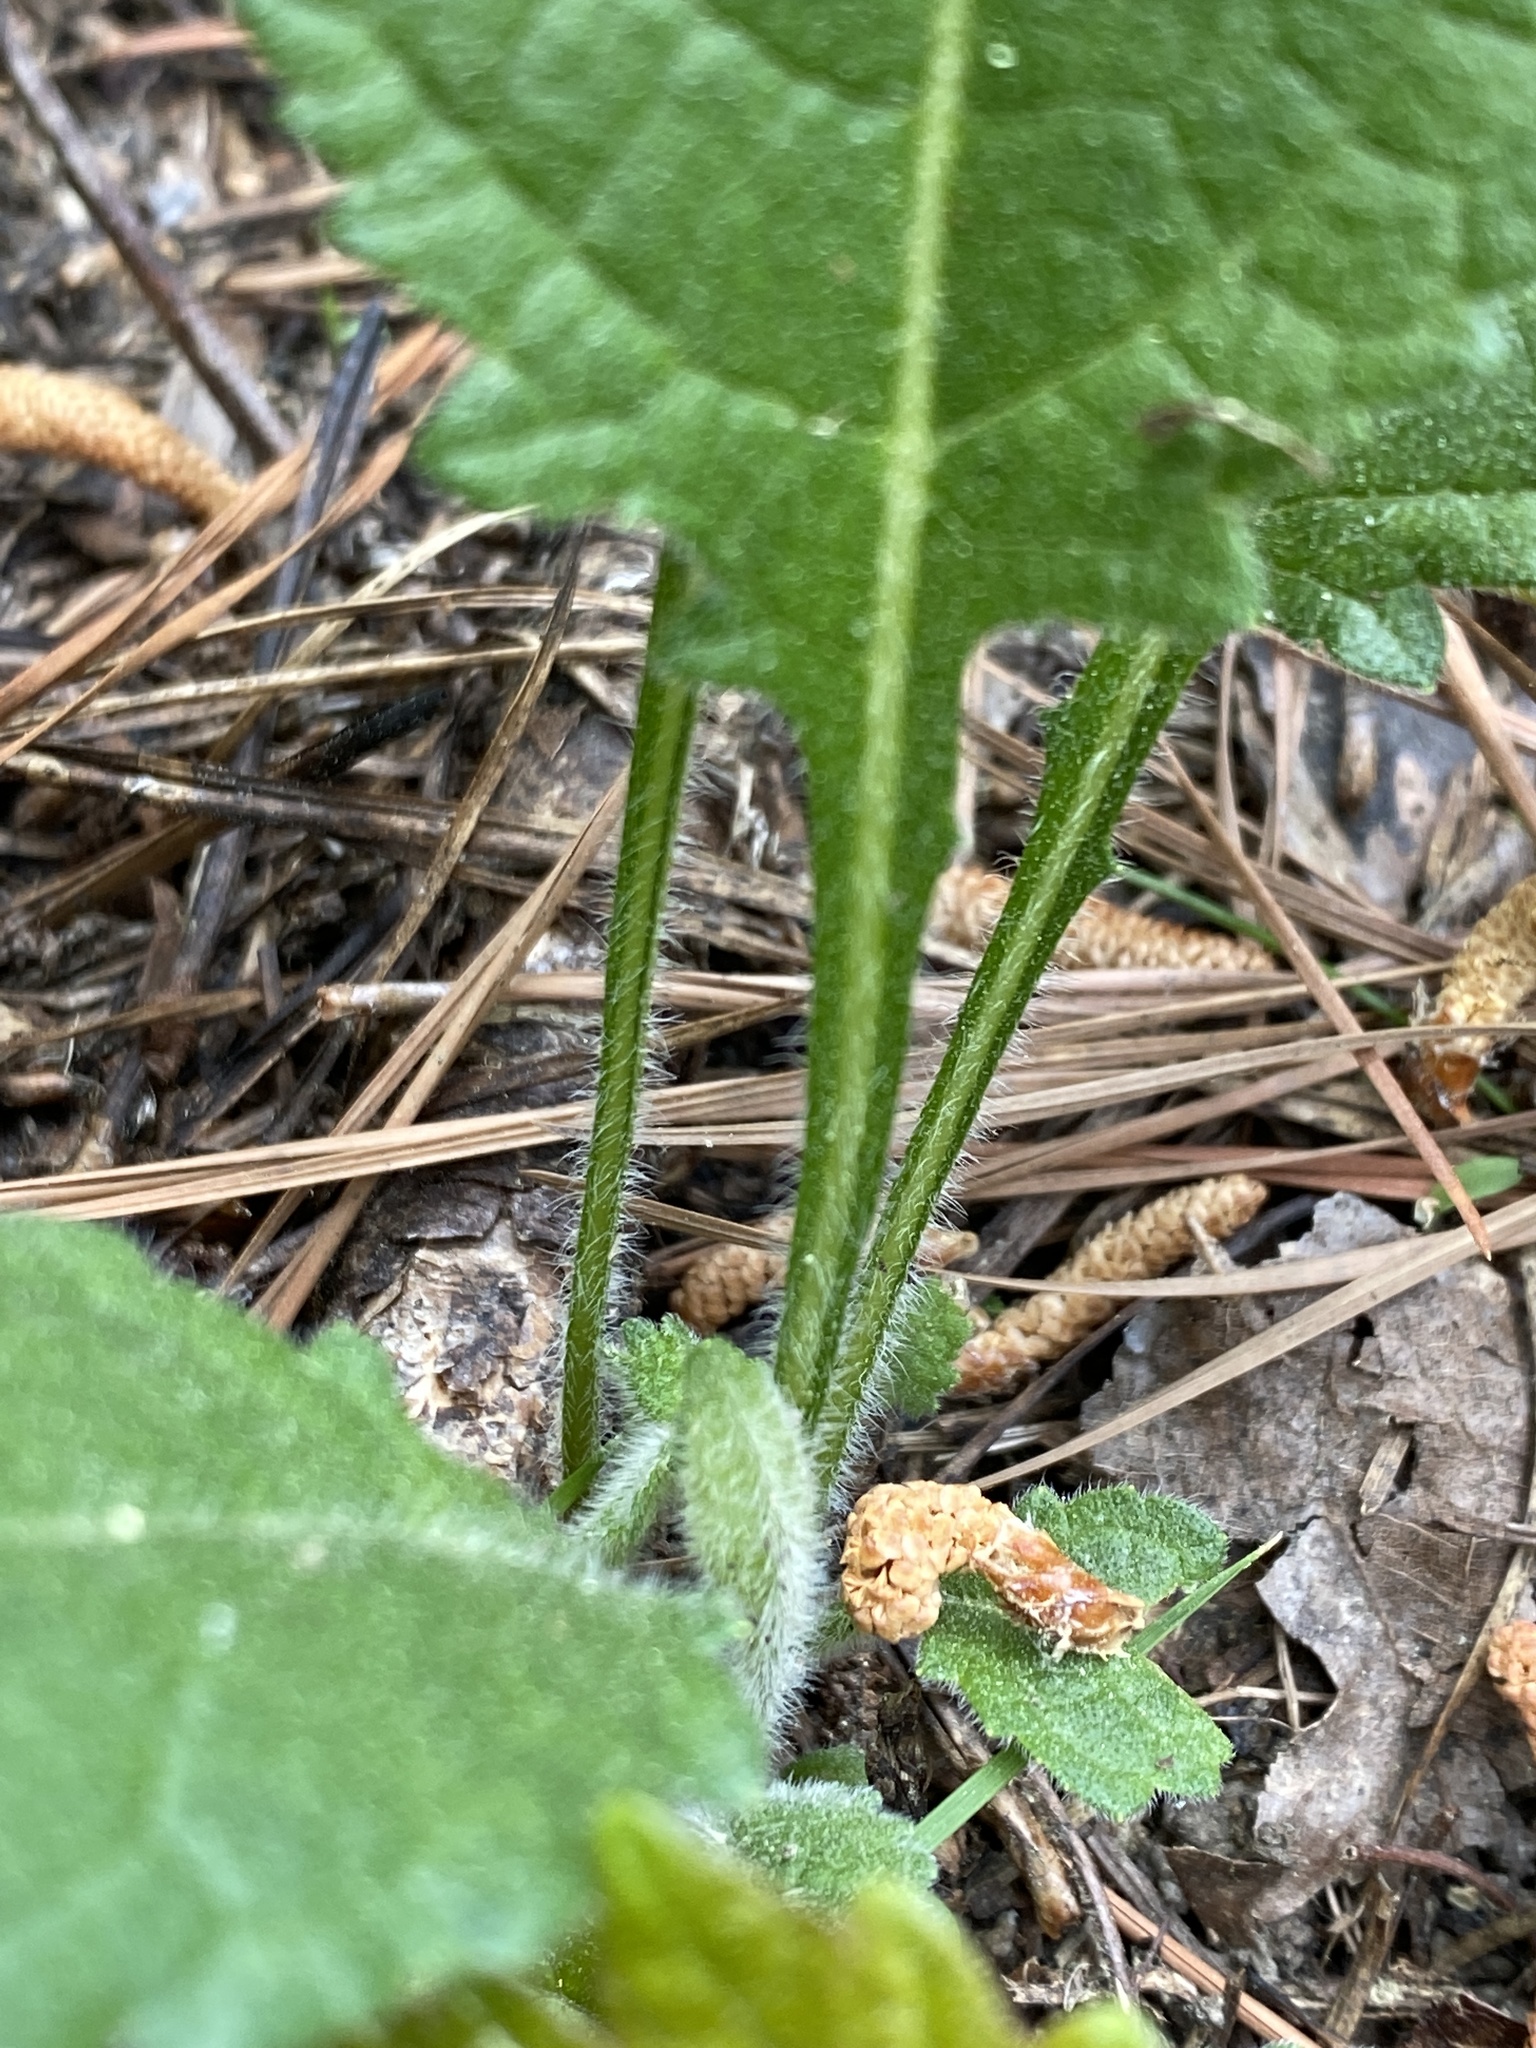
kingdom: Plantae
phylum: Tracheophyta
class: Magnoliopsida
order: Asterales
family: Asteraceae
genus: Parthenium
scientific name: Parthenium auriculatum
